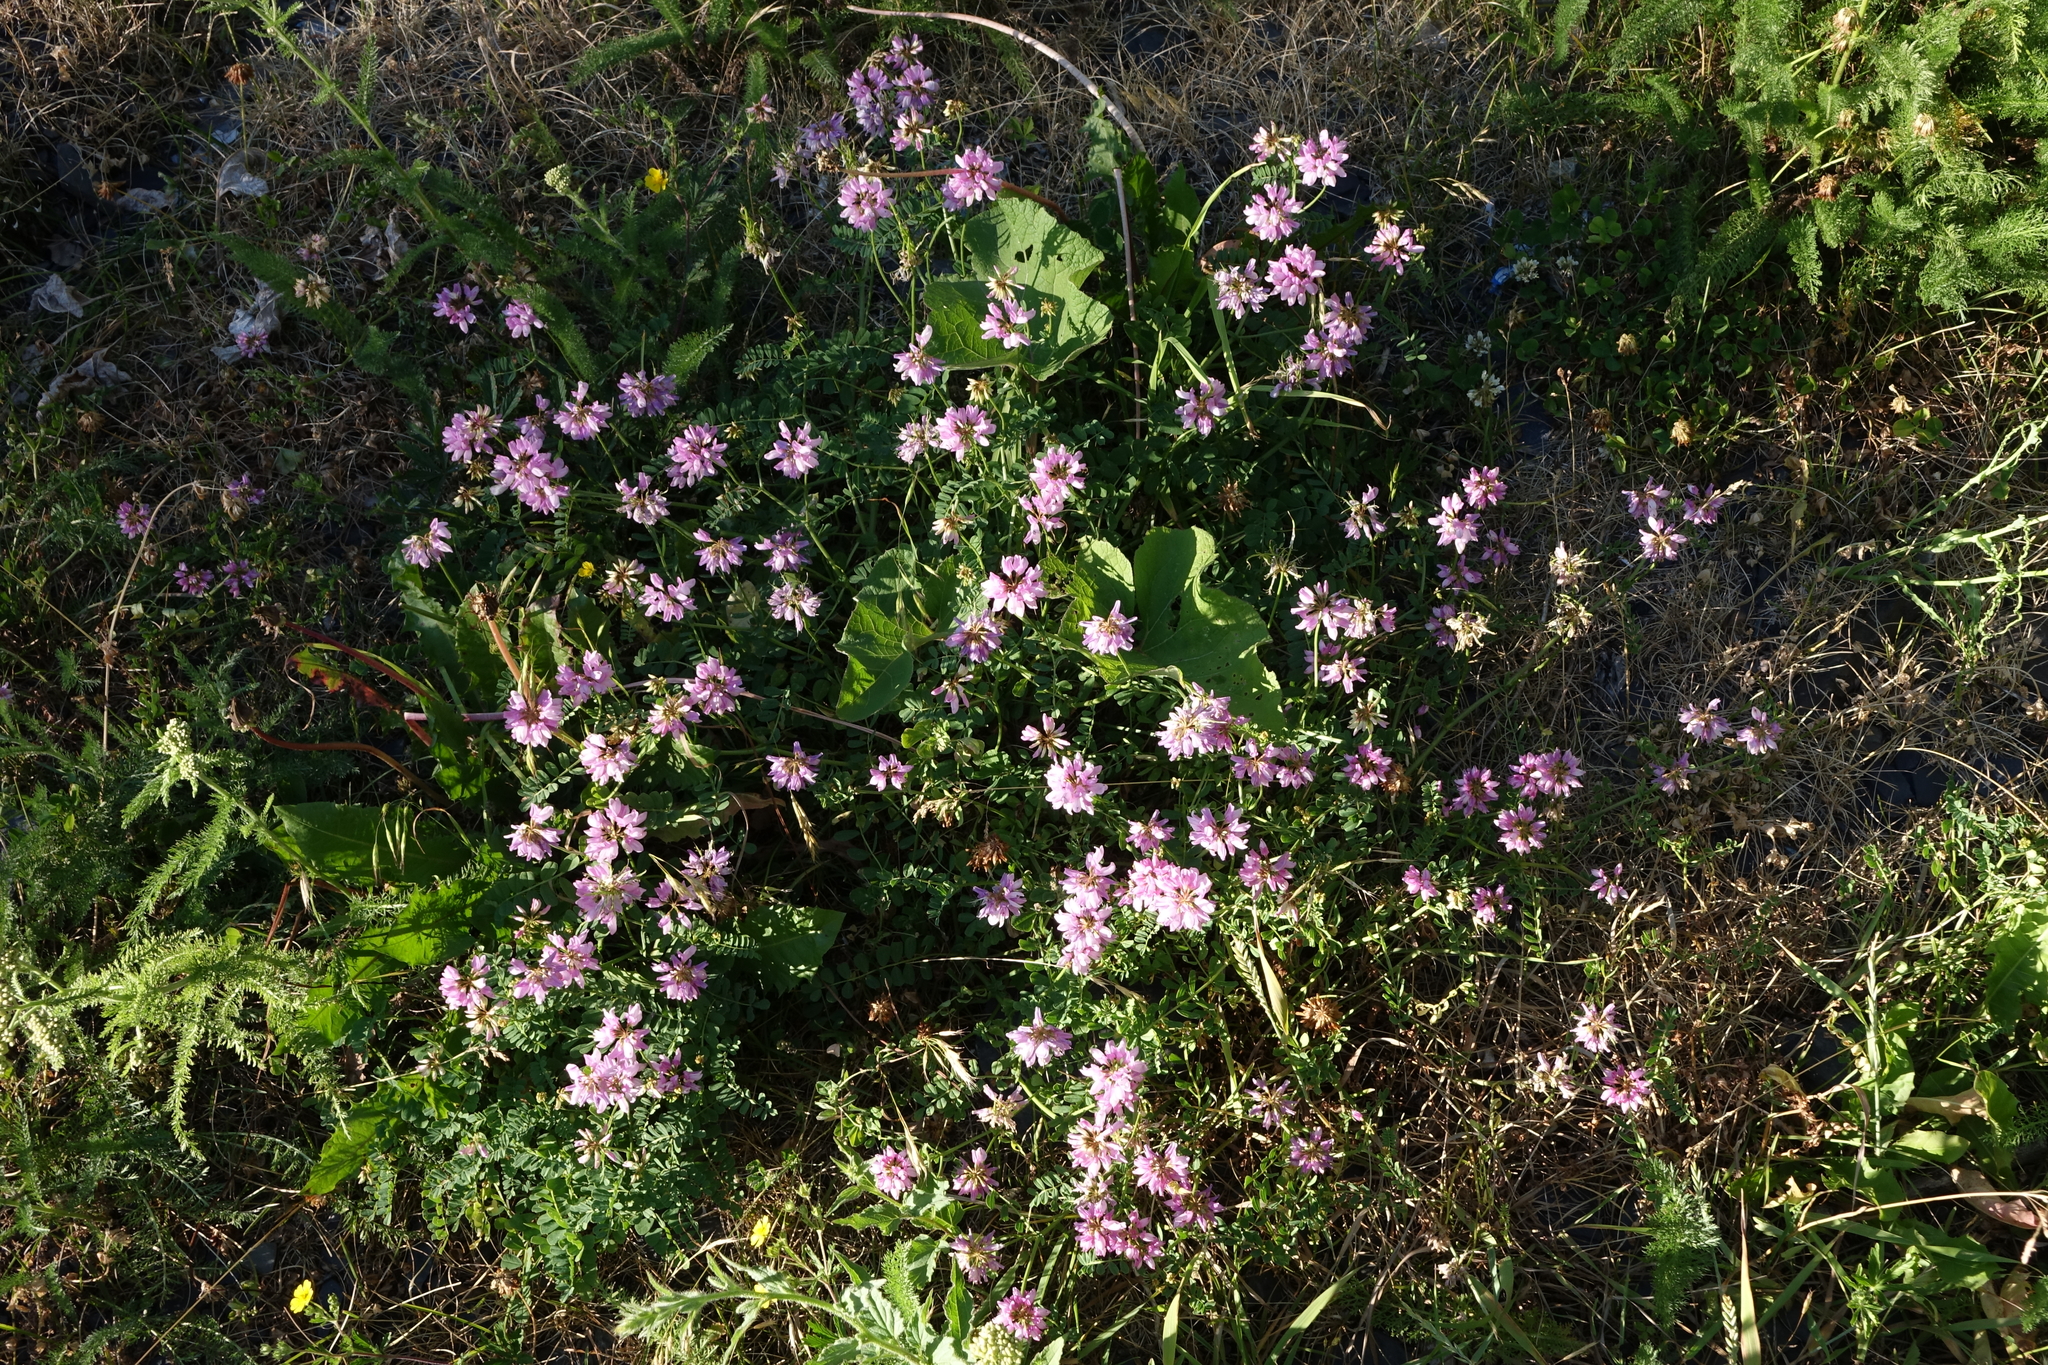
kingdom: Plantae
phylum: Tracheophyta
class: Magnoliopsida
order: Fabales
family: Fabaceae
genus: Coronilla
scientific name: Coronilla varia
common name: Crownvetch
